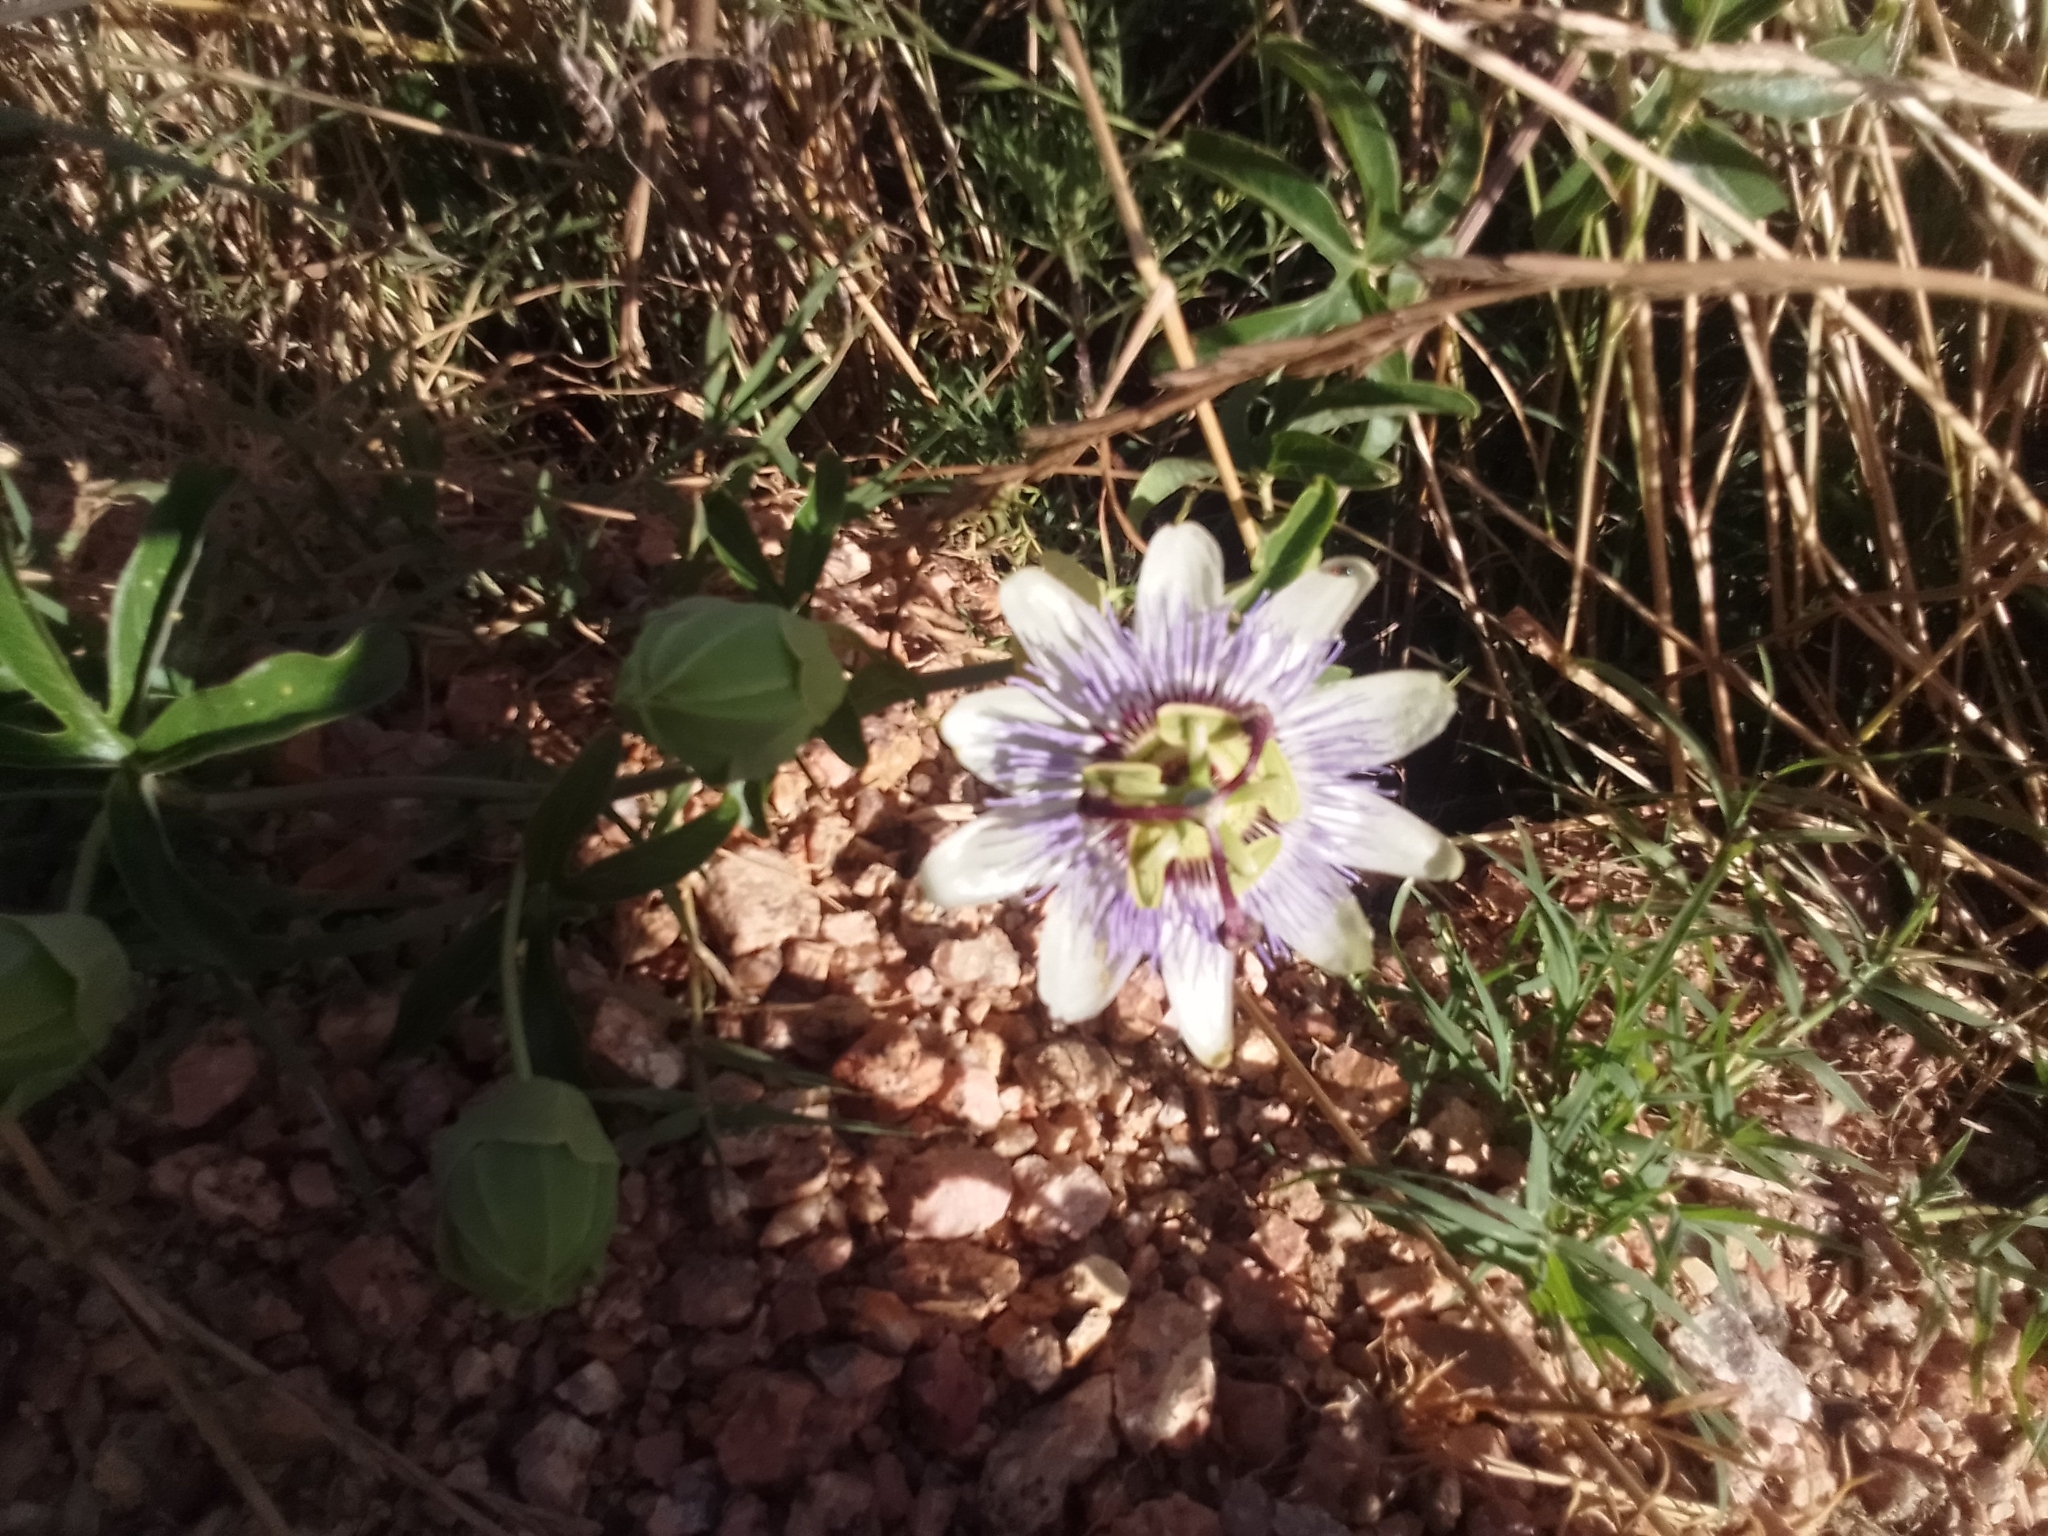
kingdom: Plantae
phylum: Tracheophyta
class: Magnoliopsida
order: Malpighiales
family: Passifloraceae
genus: Passiflora
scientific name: Passiflora caerulea
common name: Blue passionflower
